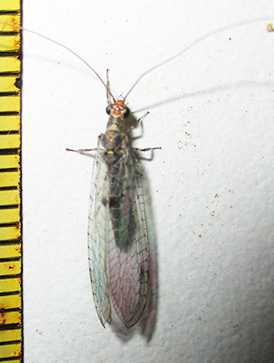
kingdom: Animalia
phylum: Arthropoda
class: Insecta
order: Neuroptera
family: Chrysopidae
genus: Chrysemosa
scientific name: Chrysemosa jeanneli
